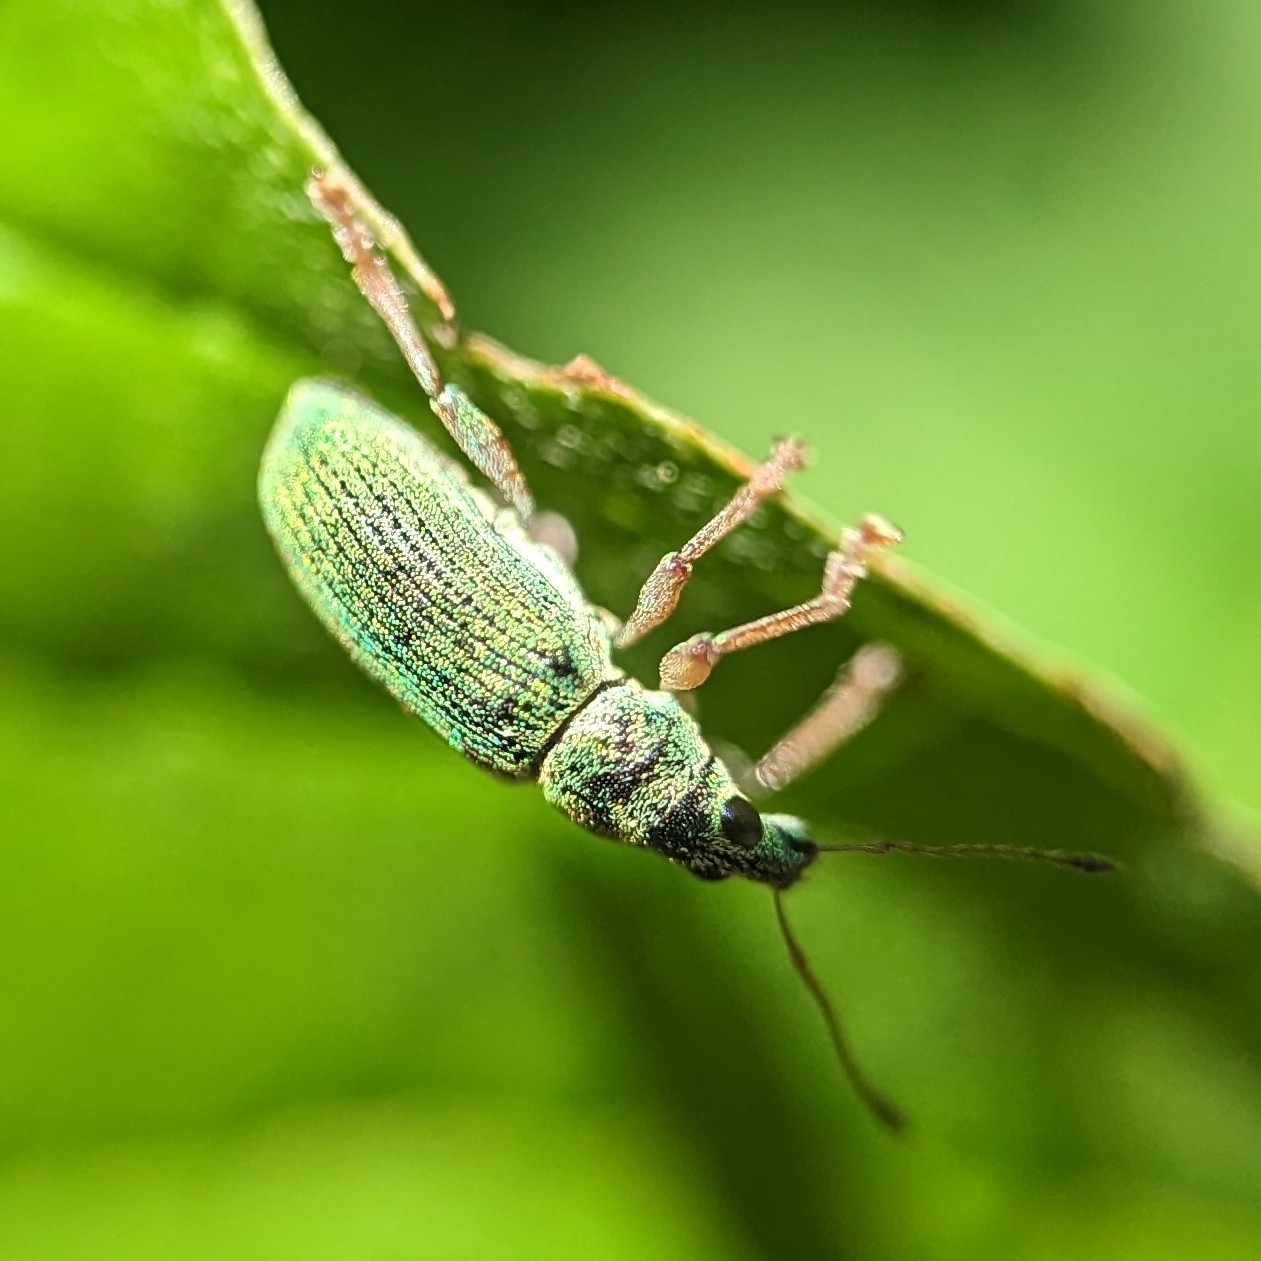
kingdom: Animalia
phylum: Arthropoda
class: Insecta
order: Coleoptera
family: Curculionidae
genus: Polydrusus
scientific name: Polydrusus formosus
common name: Weevil
